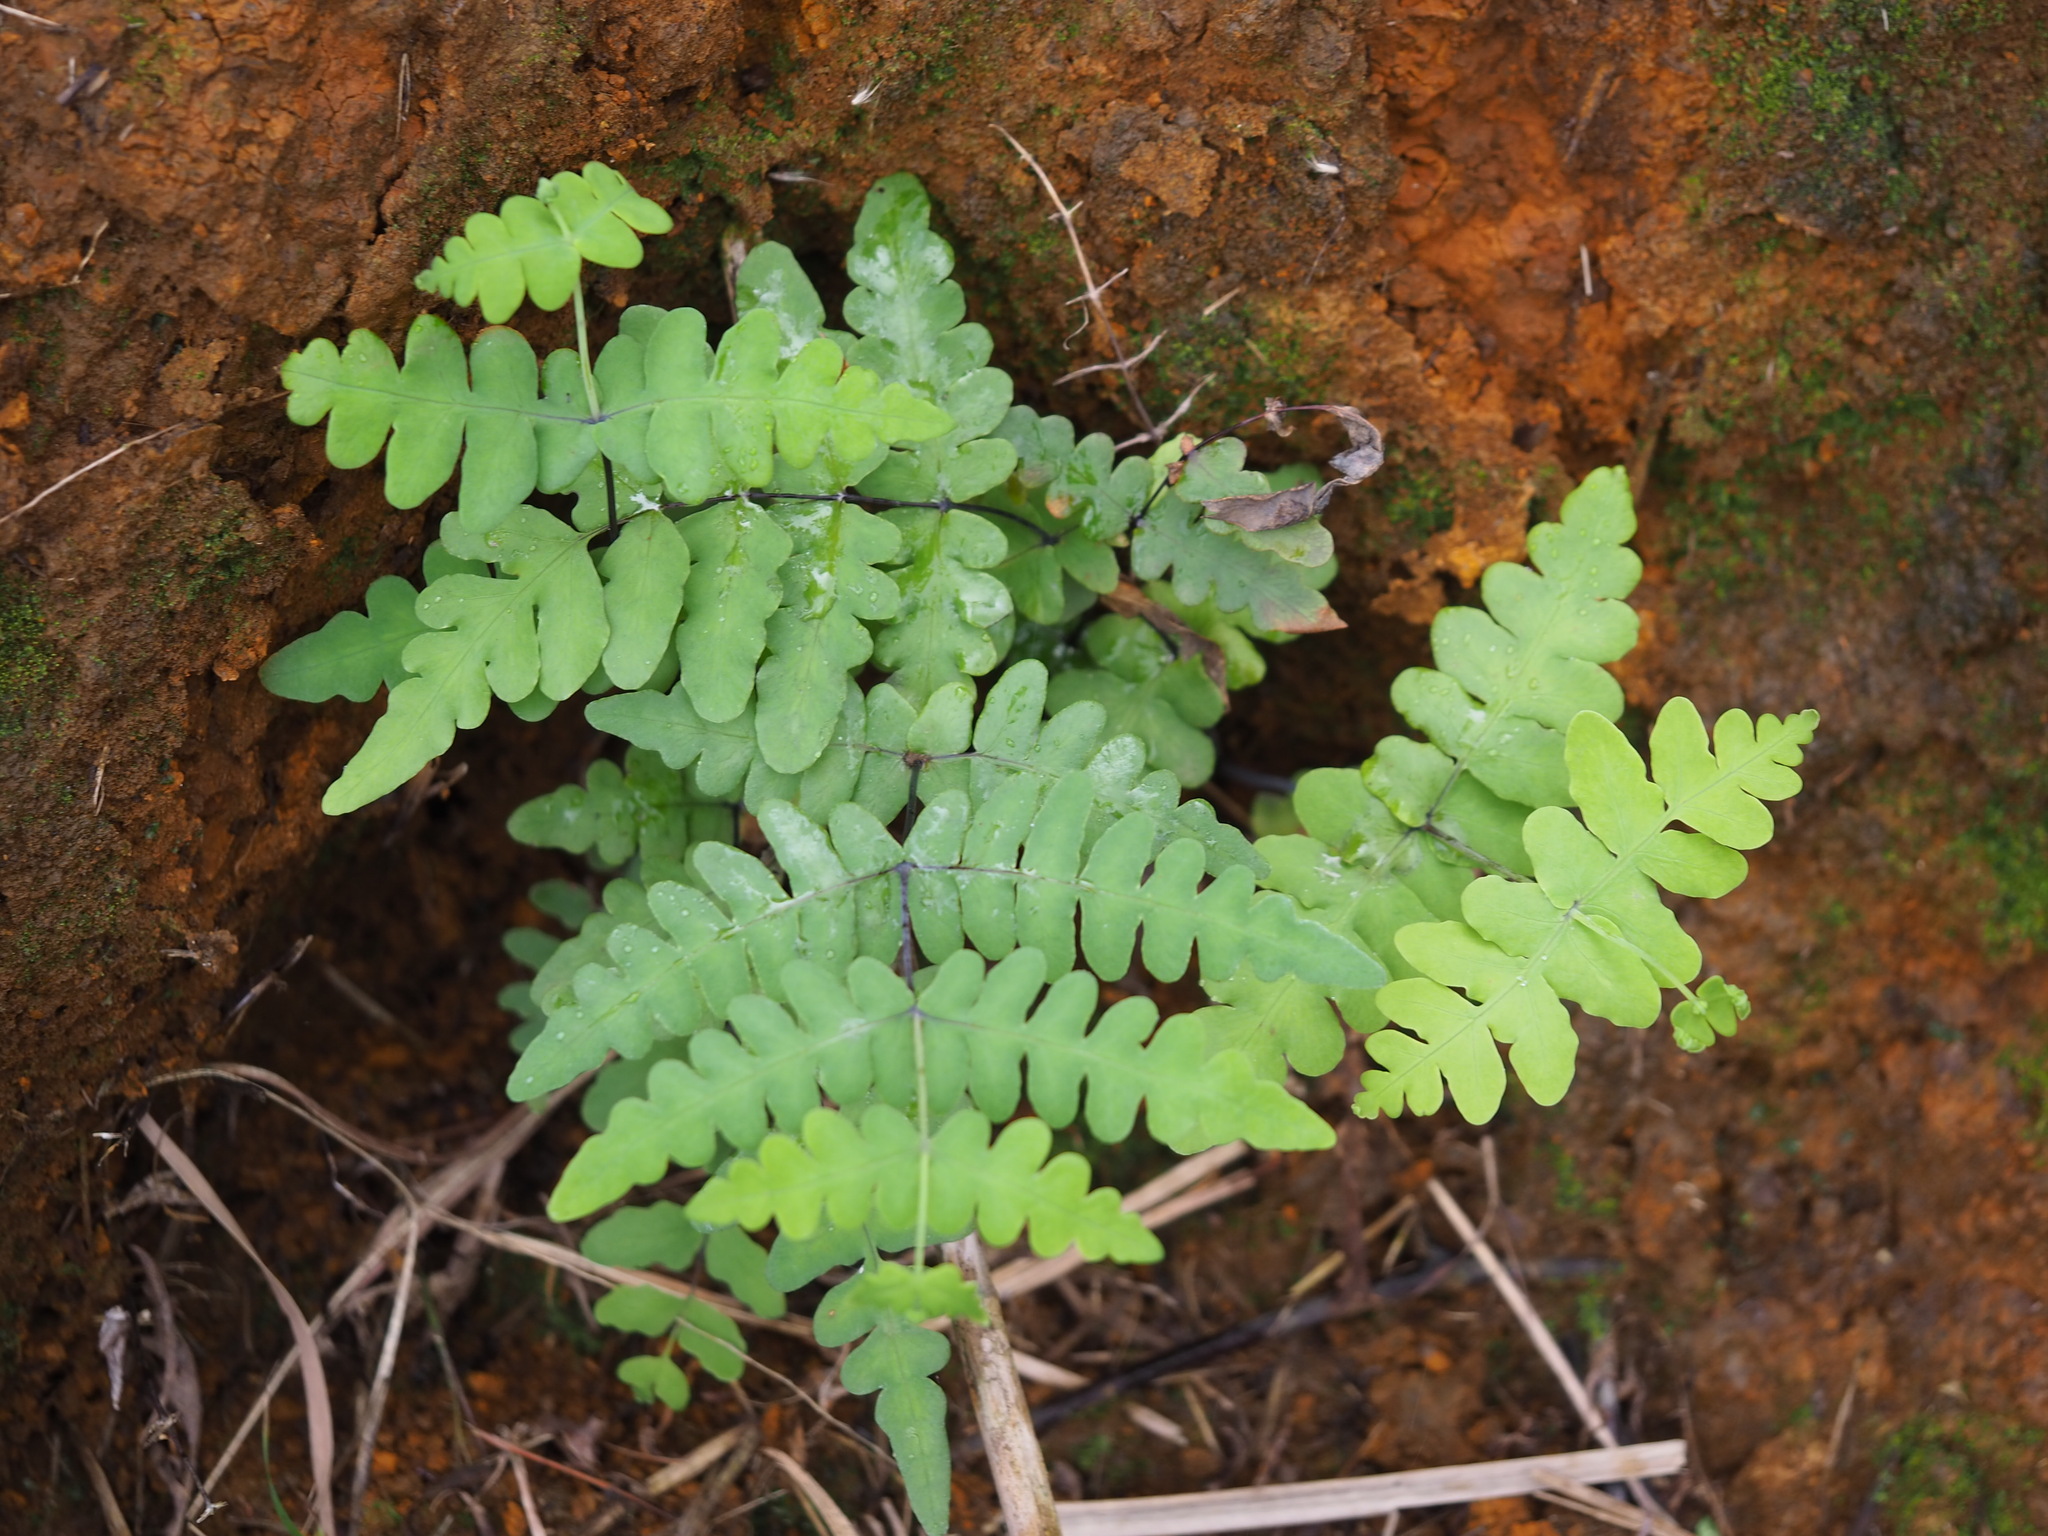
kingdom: Plantae
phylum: Tracheophyta
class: Polypodiopsida
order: Polypodiales
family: Dennstaedtiaceae
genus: Histiopteris
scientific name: Histiopteris incisa
